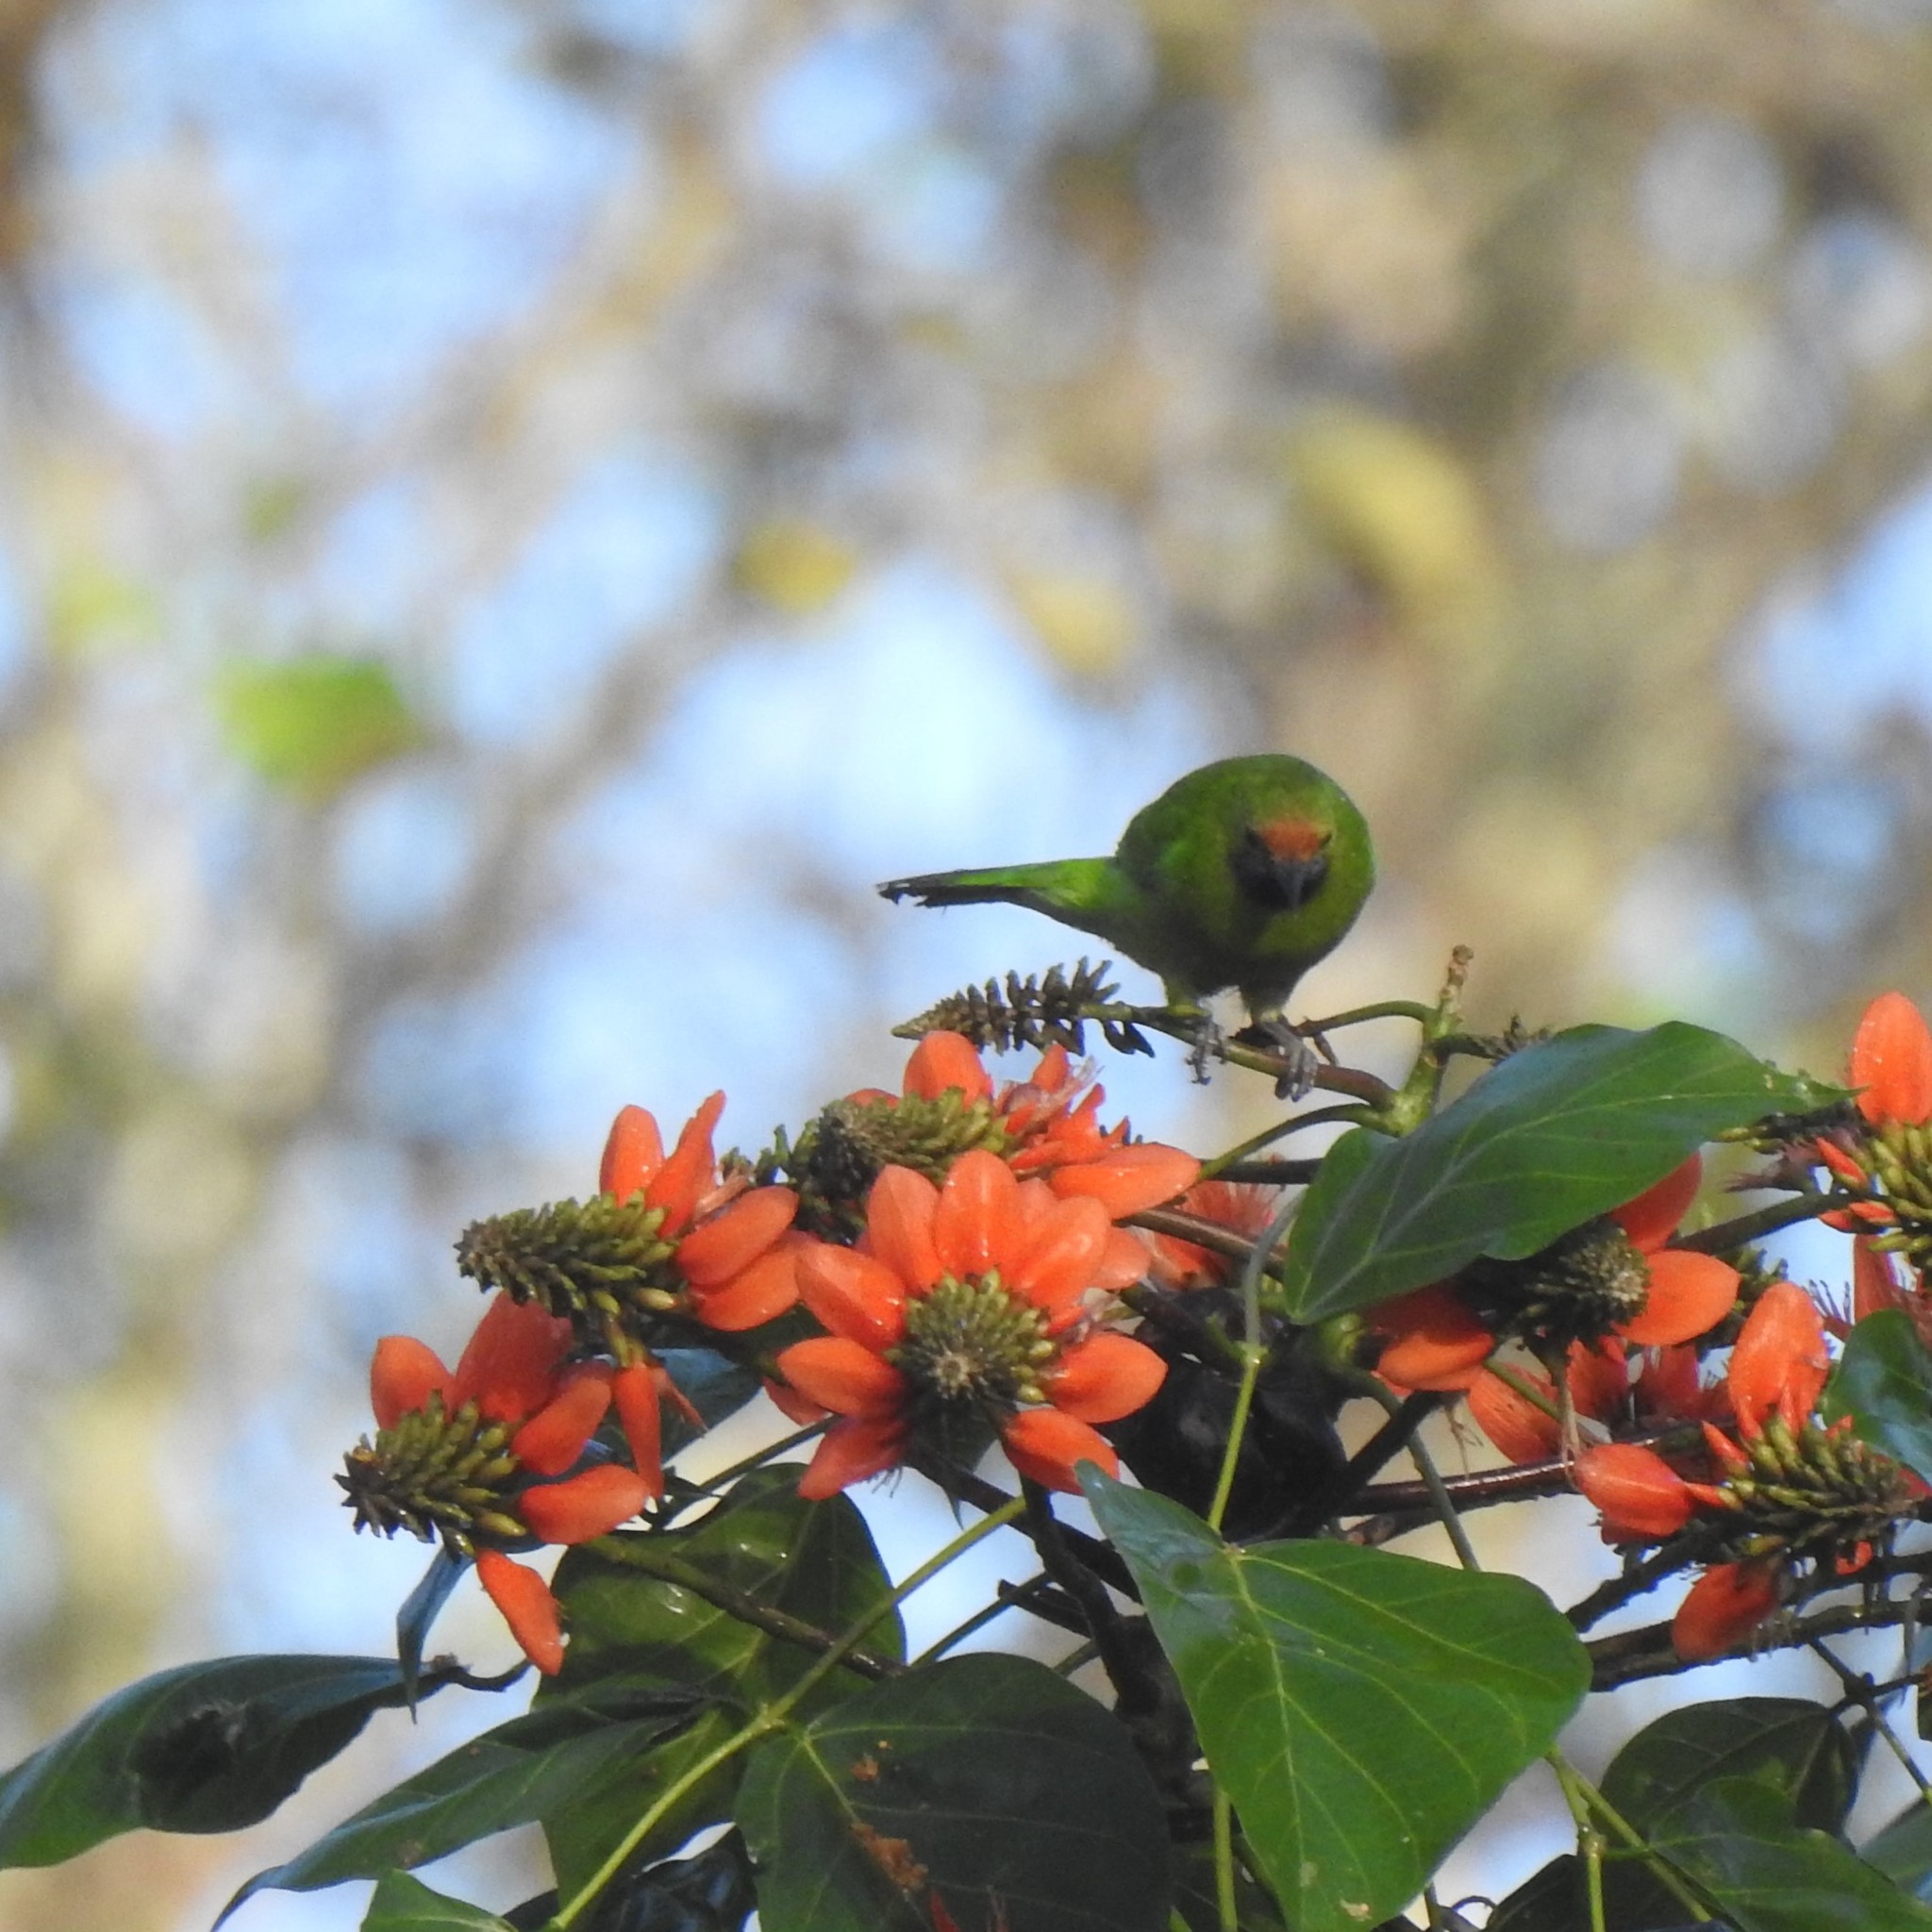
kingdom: Animalia
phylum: Chordata
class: Aves
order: Passeriformes
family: Chloropseidae
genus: Chloropsis
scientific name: Chloropsis aurifrons
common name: Golden-fronted leafbird
